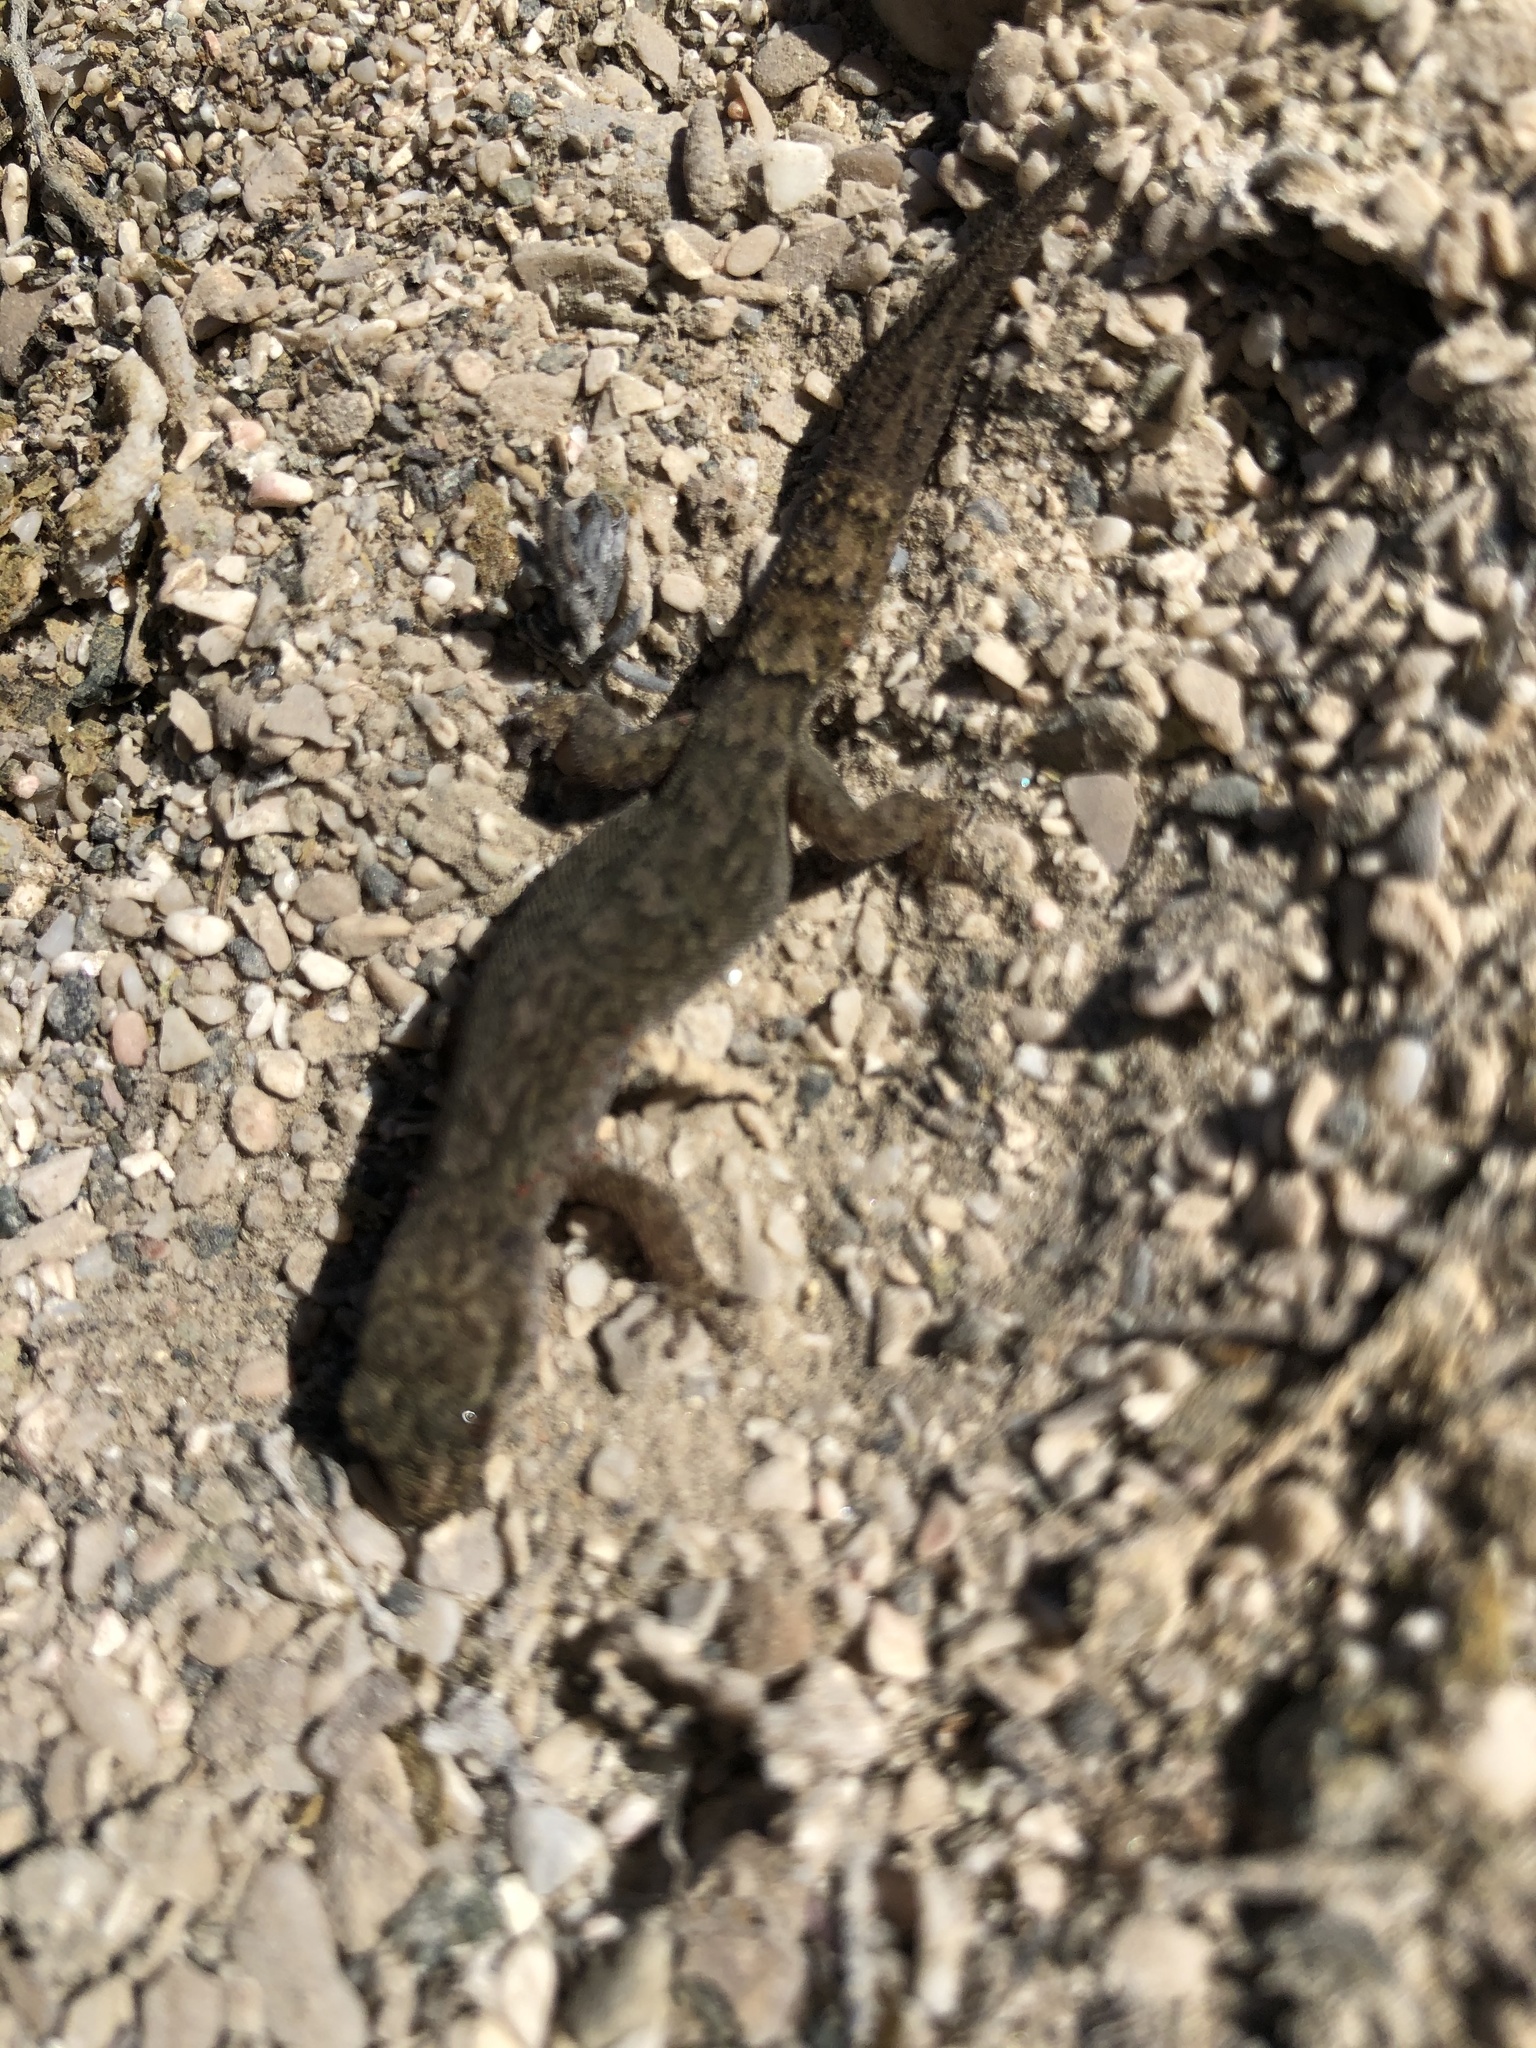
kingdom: Animalia
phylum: Chordata
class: Squamata
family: Phyllodactylidae
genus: Garthia
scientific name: Garthia gaudichaudii
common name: Chilean marked gecko
